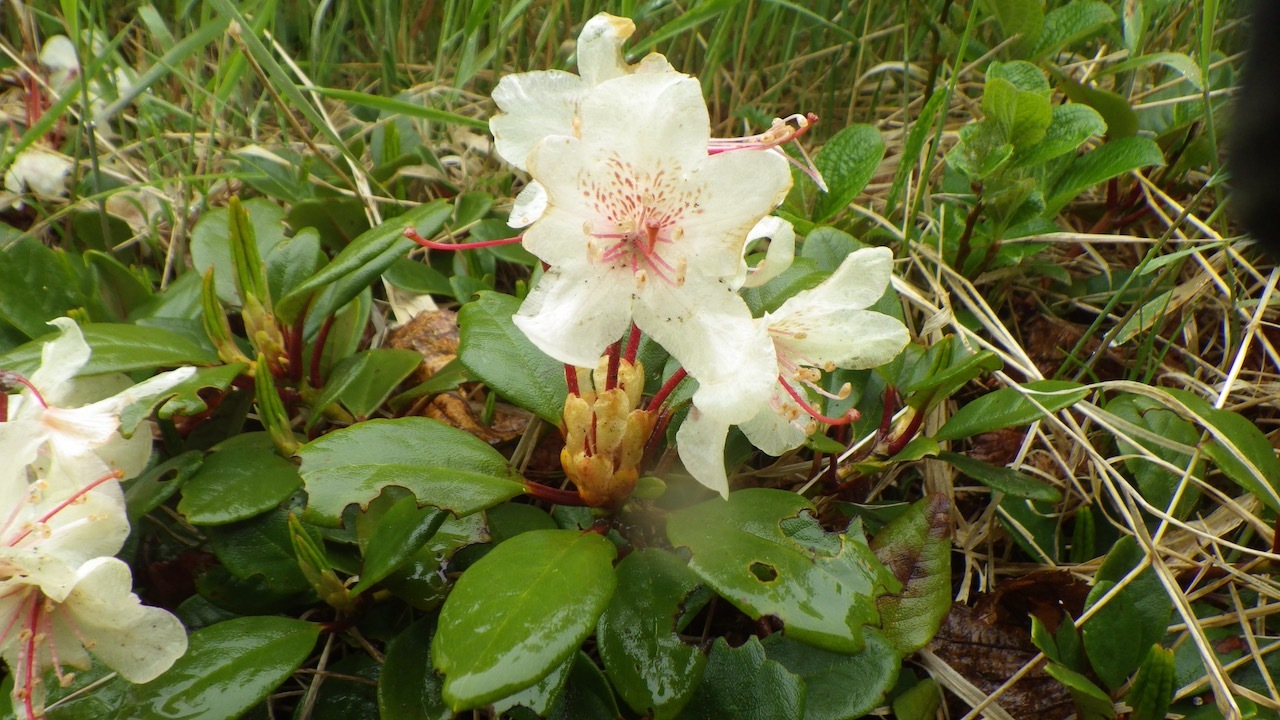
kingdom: Plantae
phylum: Tracheophyta
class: Magnoliopsida
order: Ericales
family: Ericaceae
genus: Rhododendron
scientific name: Rhododendron aureum
